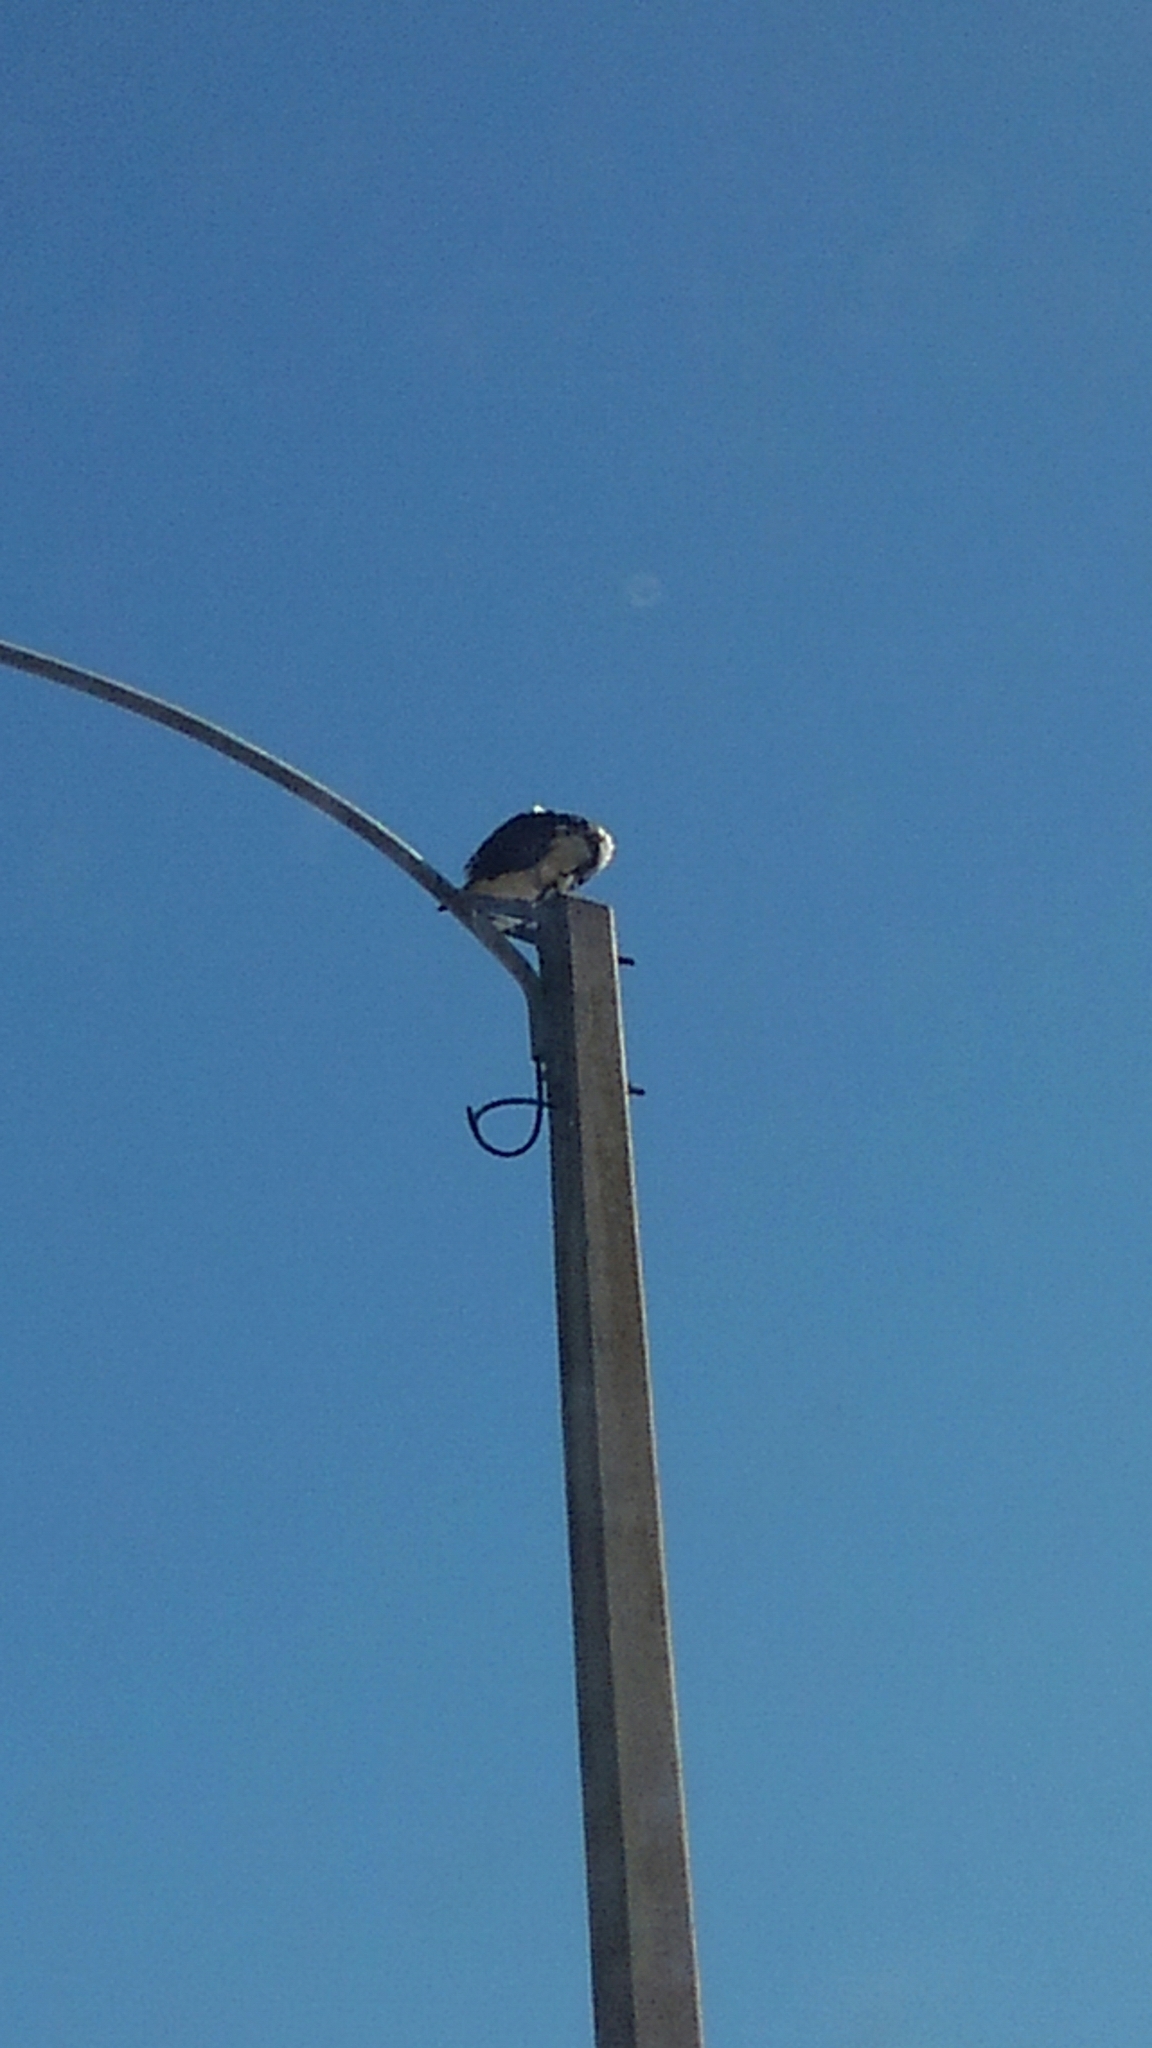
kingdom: Animalia
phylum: Chordata
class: Aves
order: Accipitriformes
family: Pandionidae
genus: Pandion
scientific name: Pandion haliaetus
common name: Osprey
